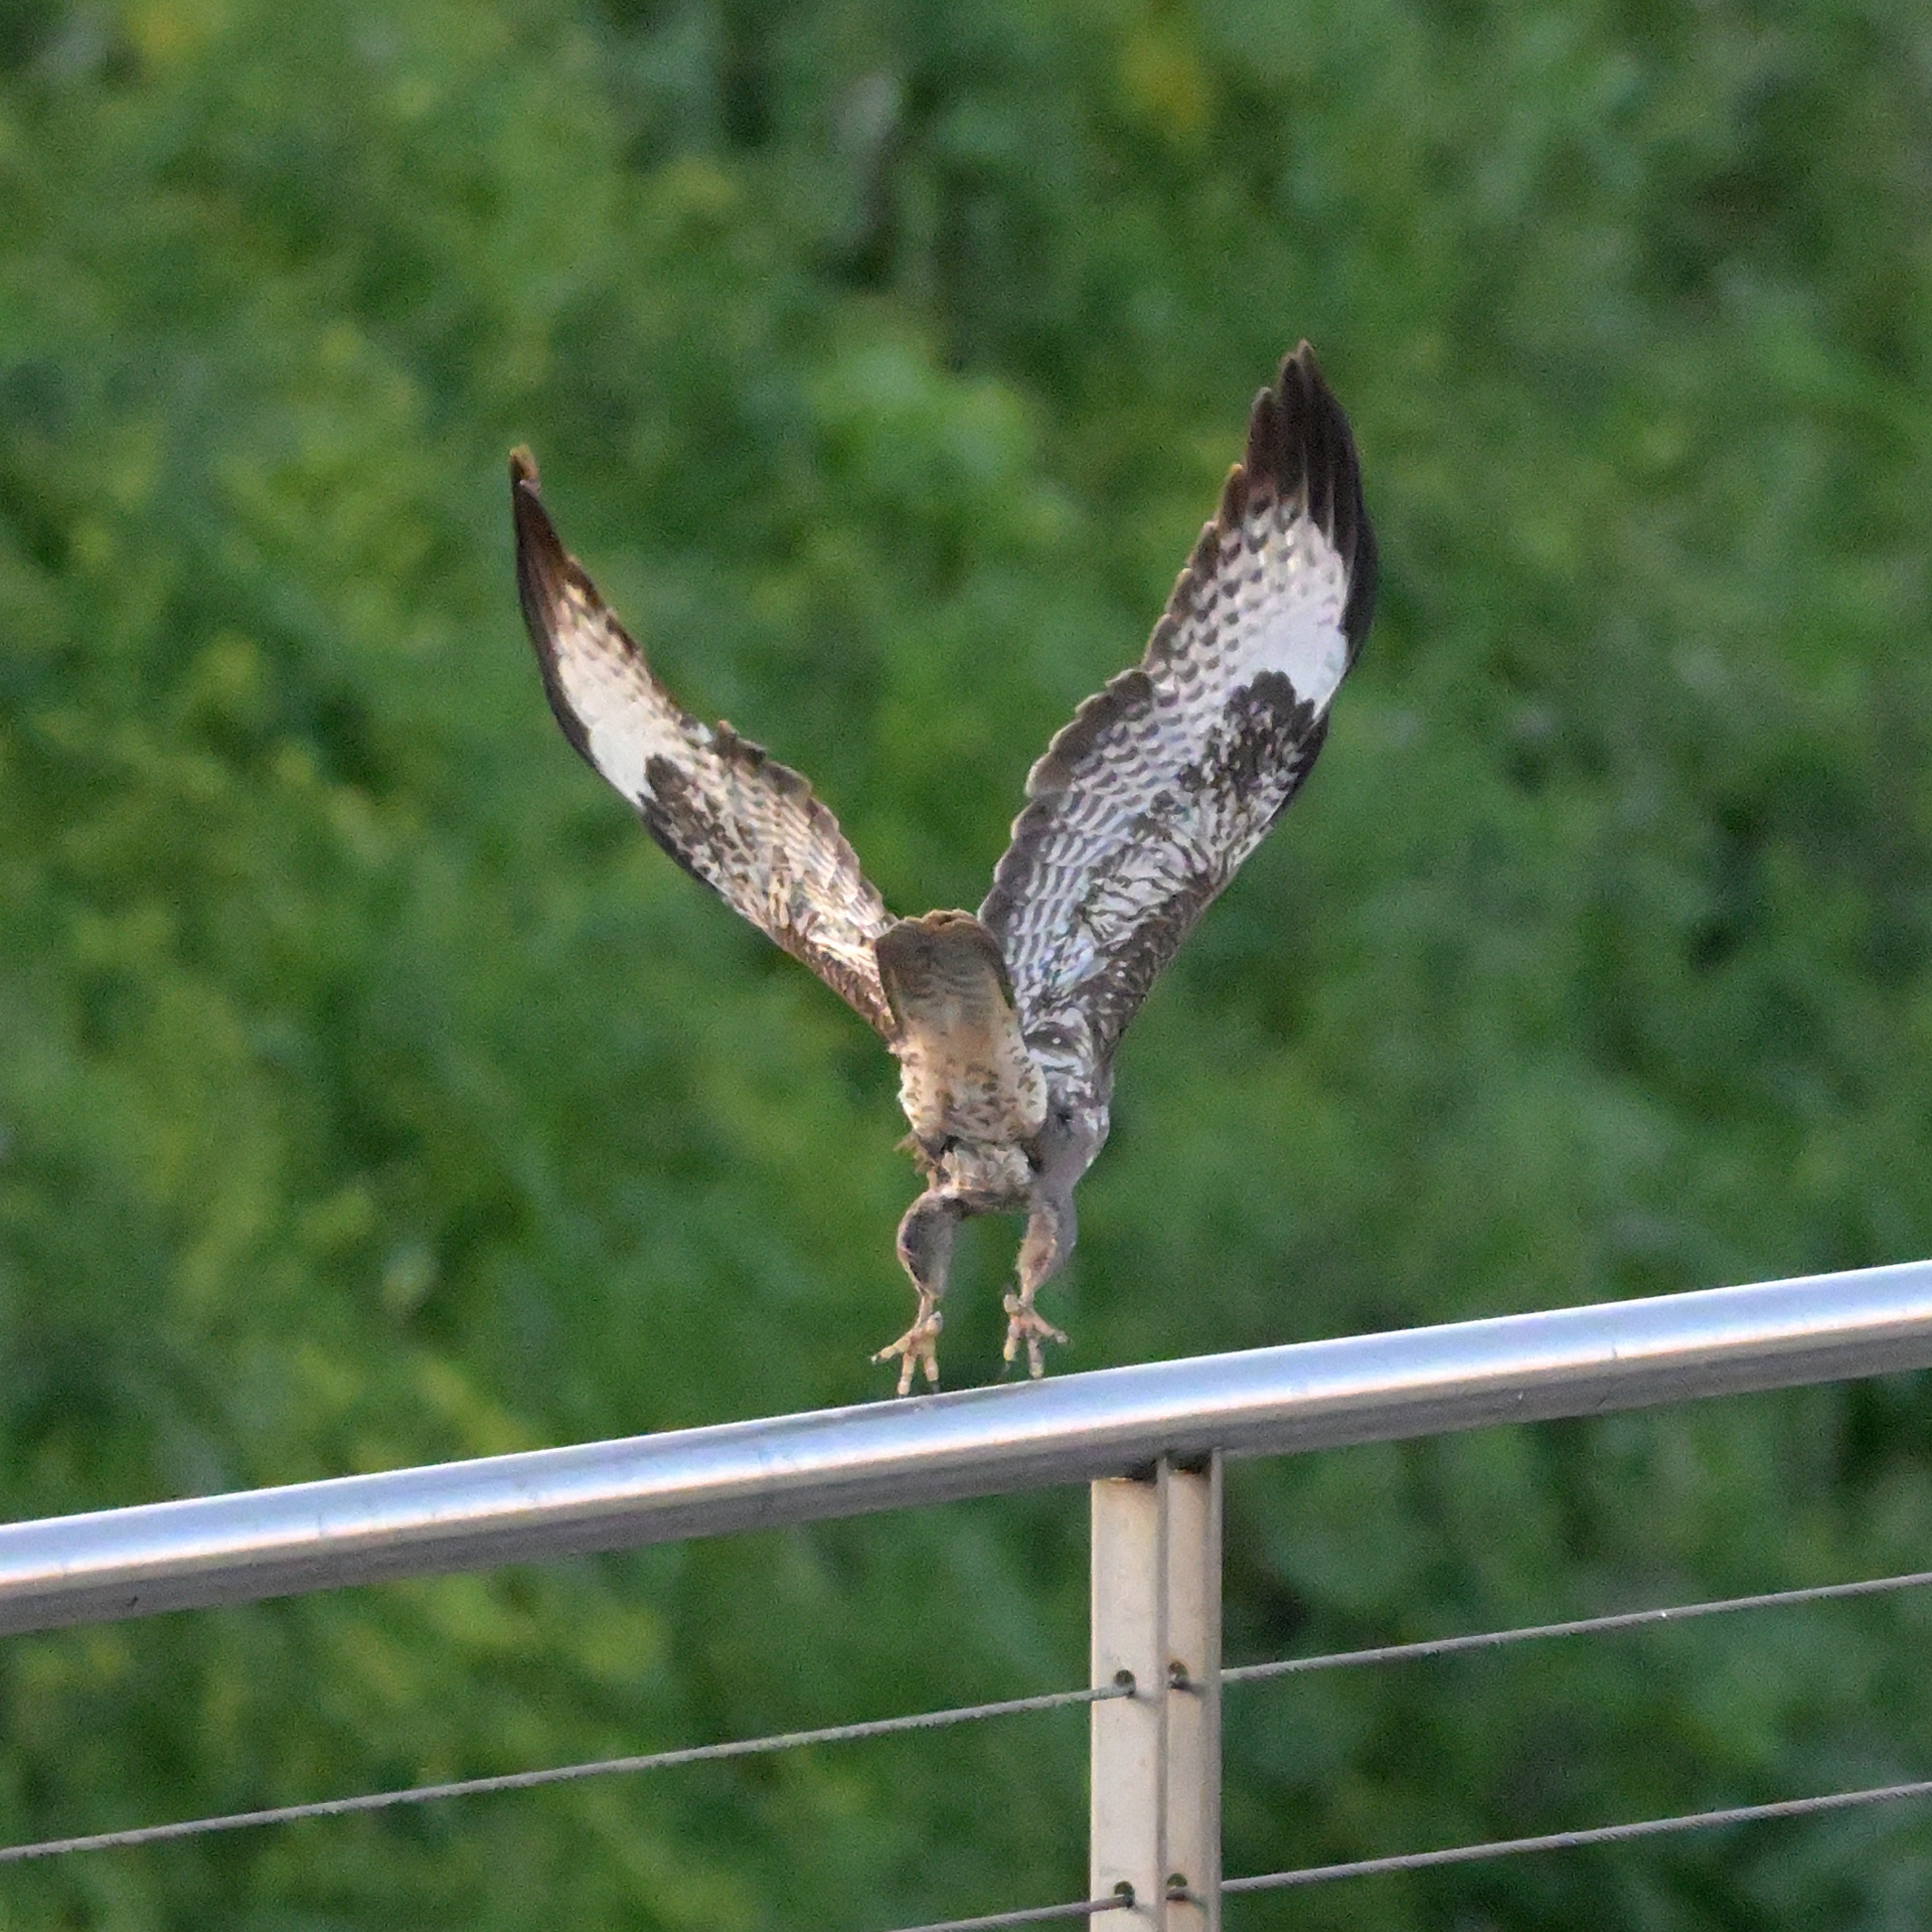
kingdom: Animalia
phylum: Chordata
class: Aves
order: Accipitriformes
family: Accipitridae
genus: Buteo
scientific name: Buteo buteo
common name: Common buzzard
